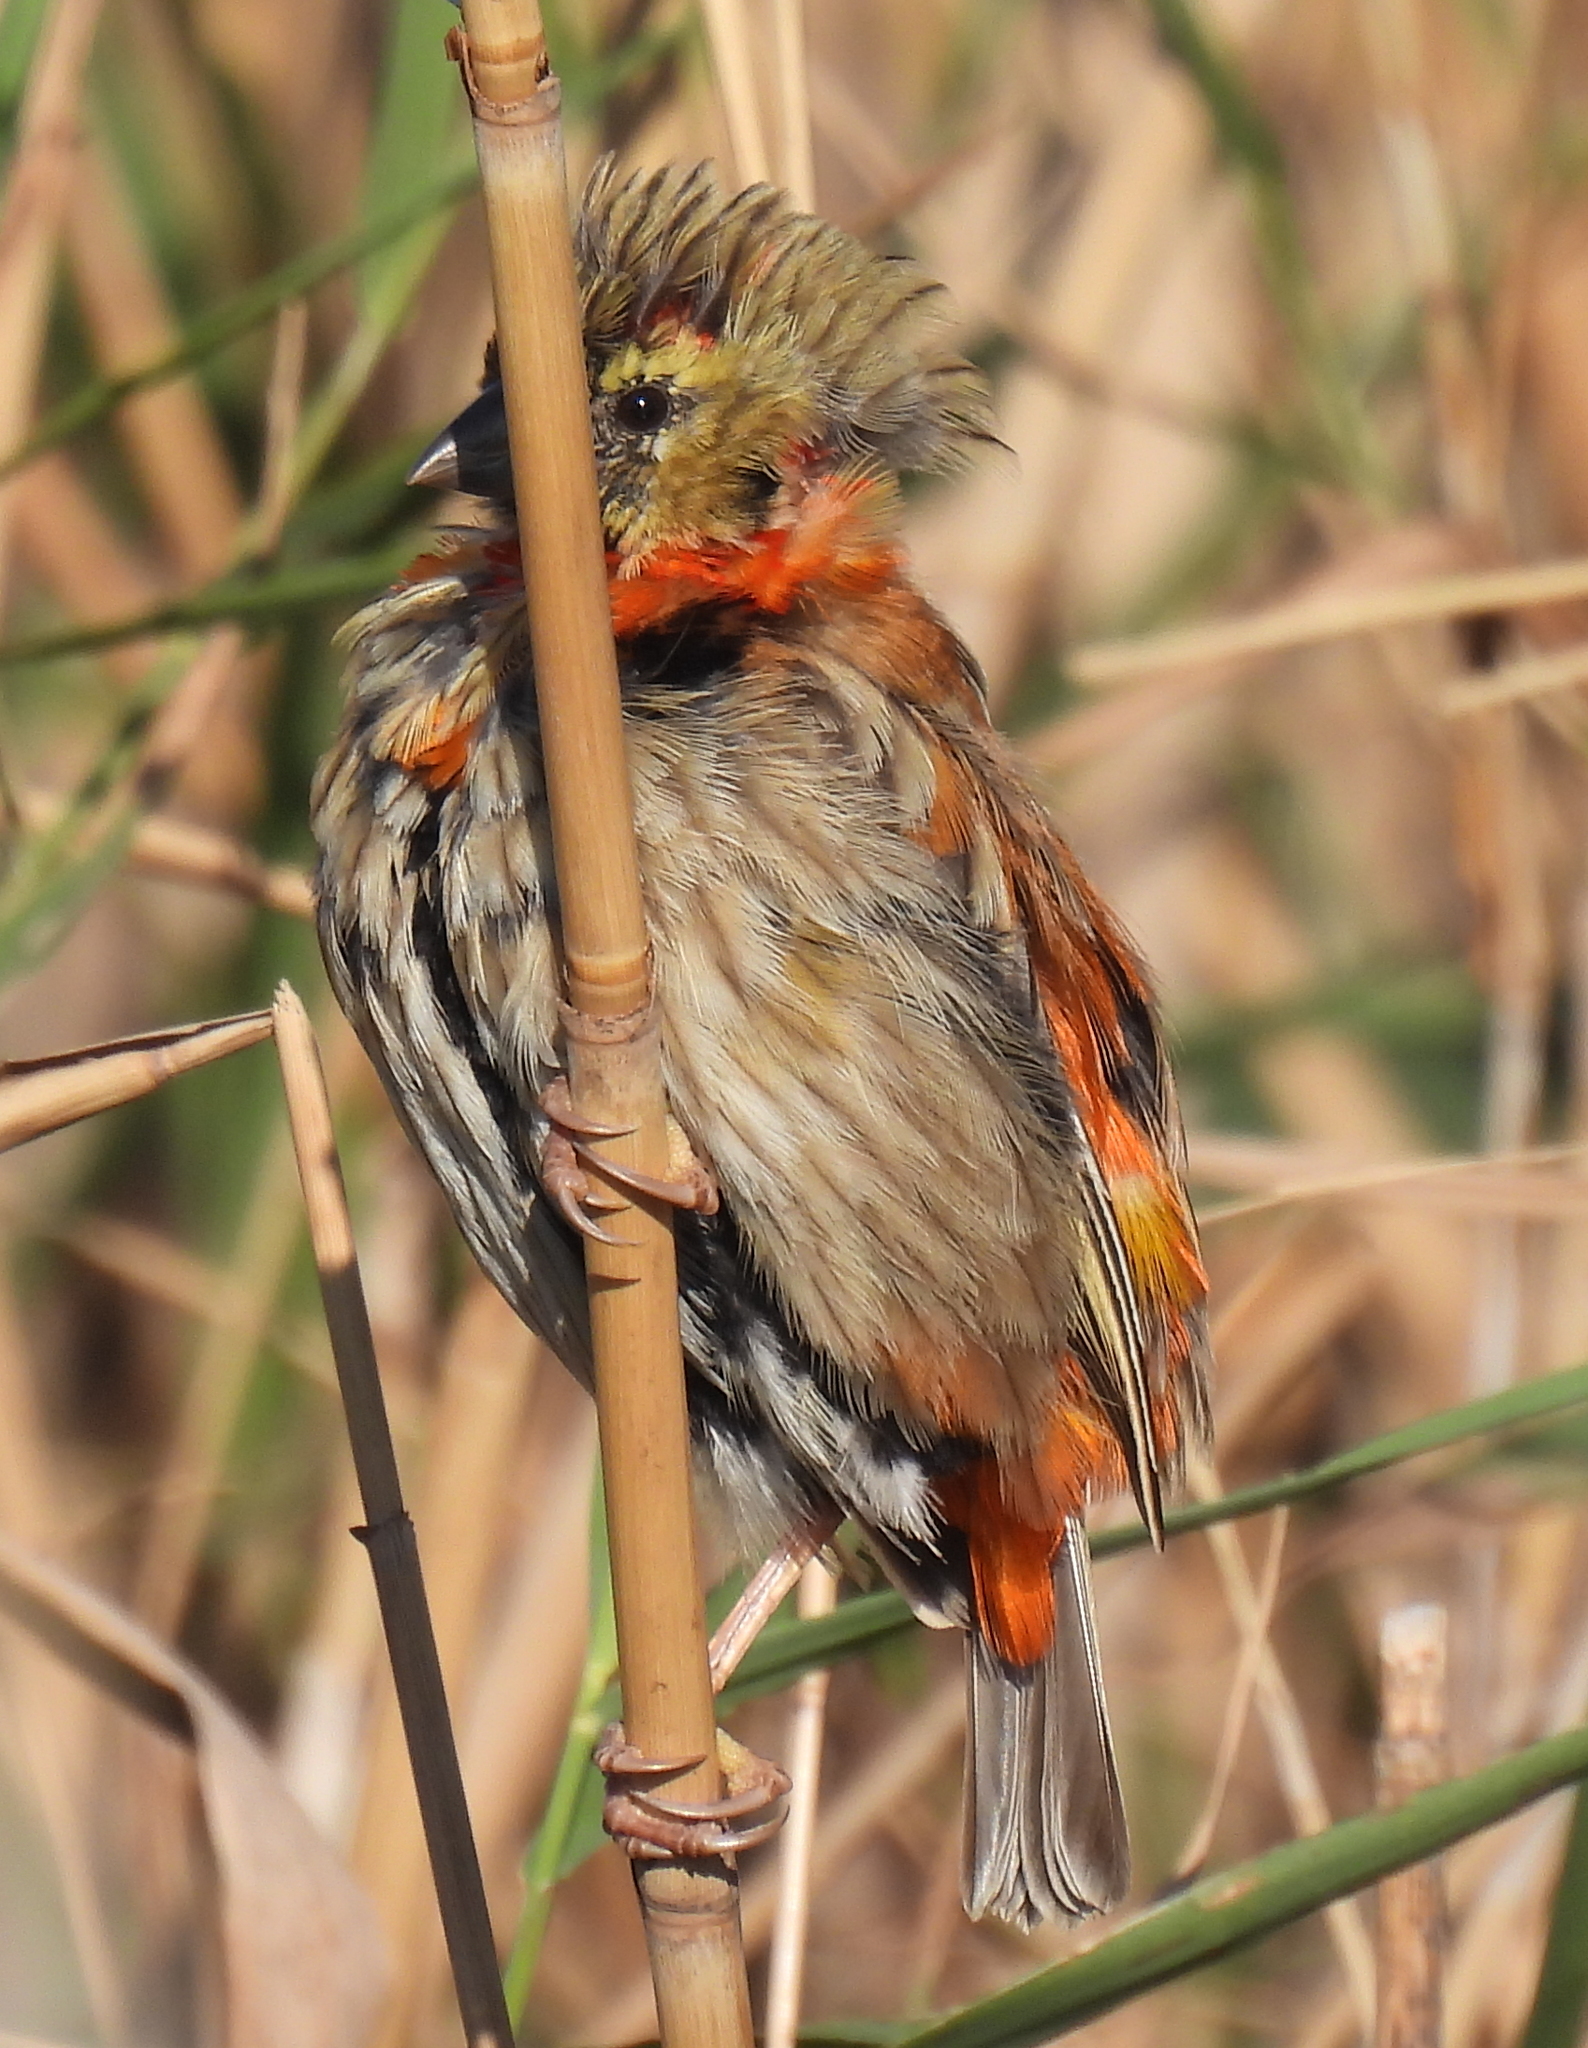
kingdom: Animalia
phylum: Chordata
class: Aves
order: Passeriformes
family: Ploceidae
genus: Euplectes
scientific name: Euplectes orix
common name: Southern red bishop
